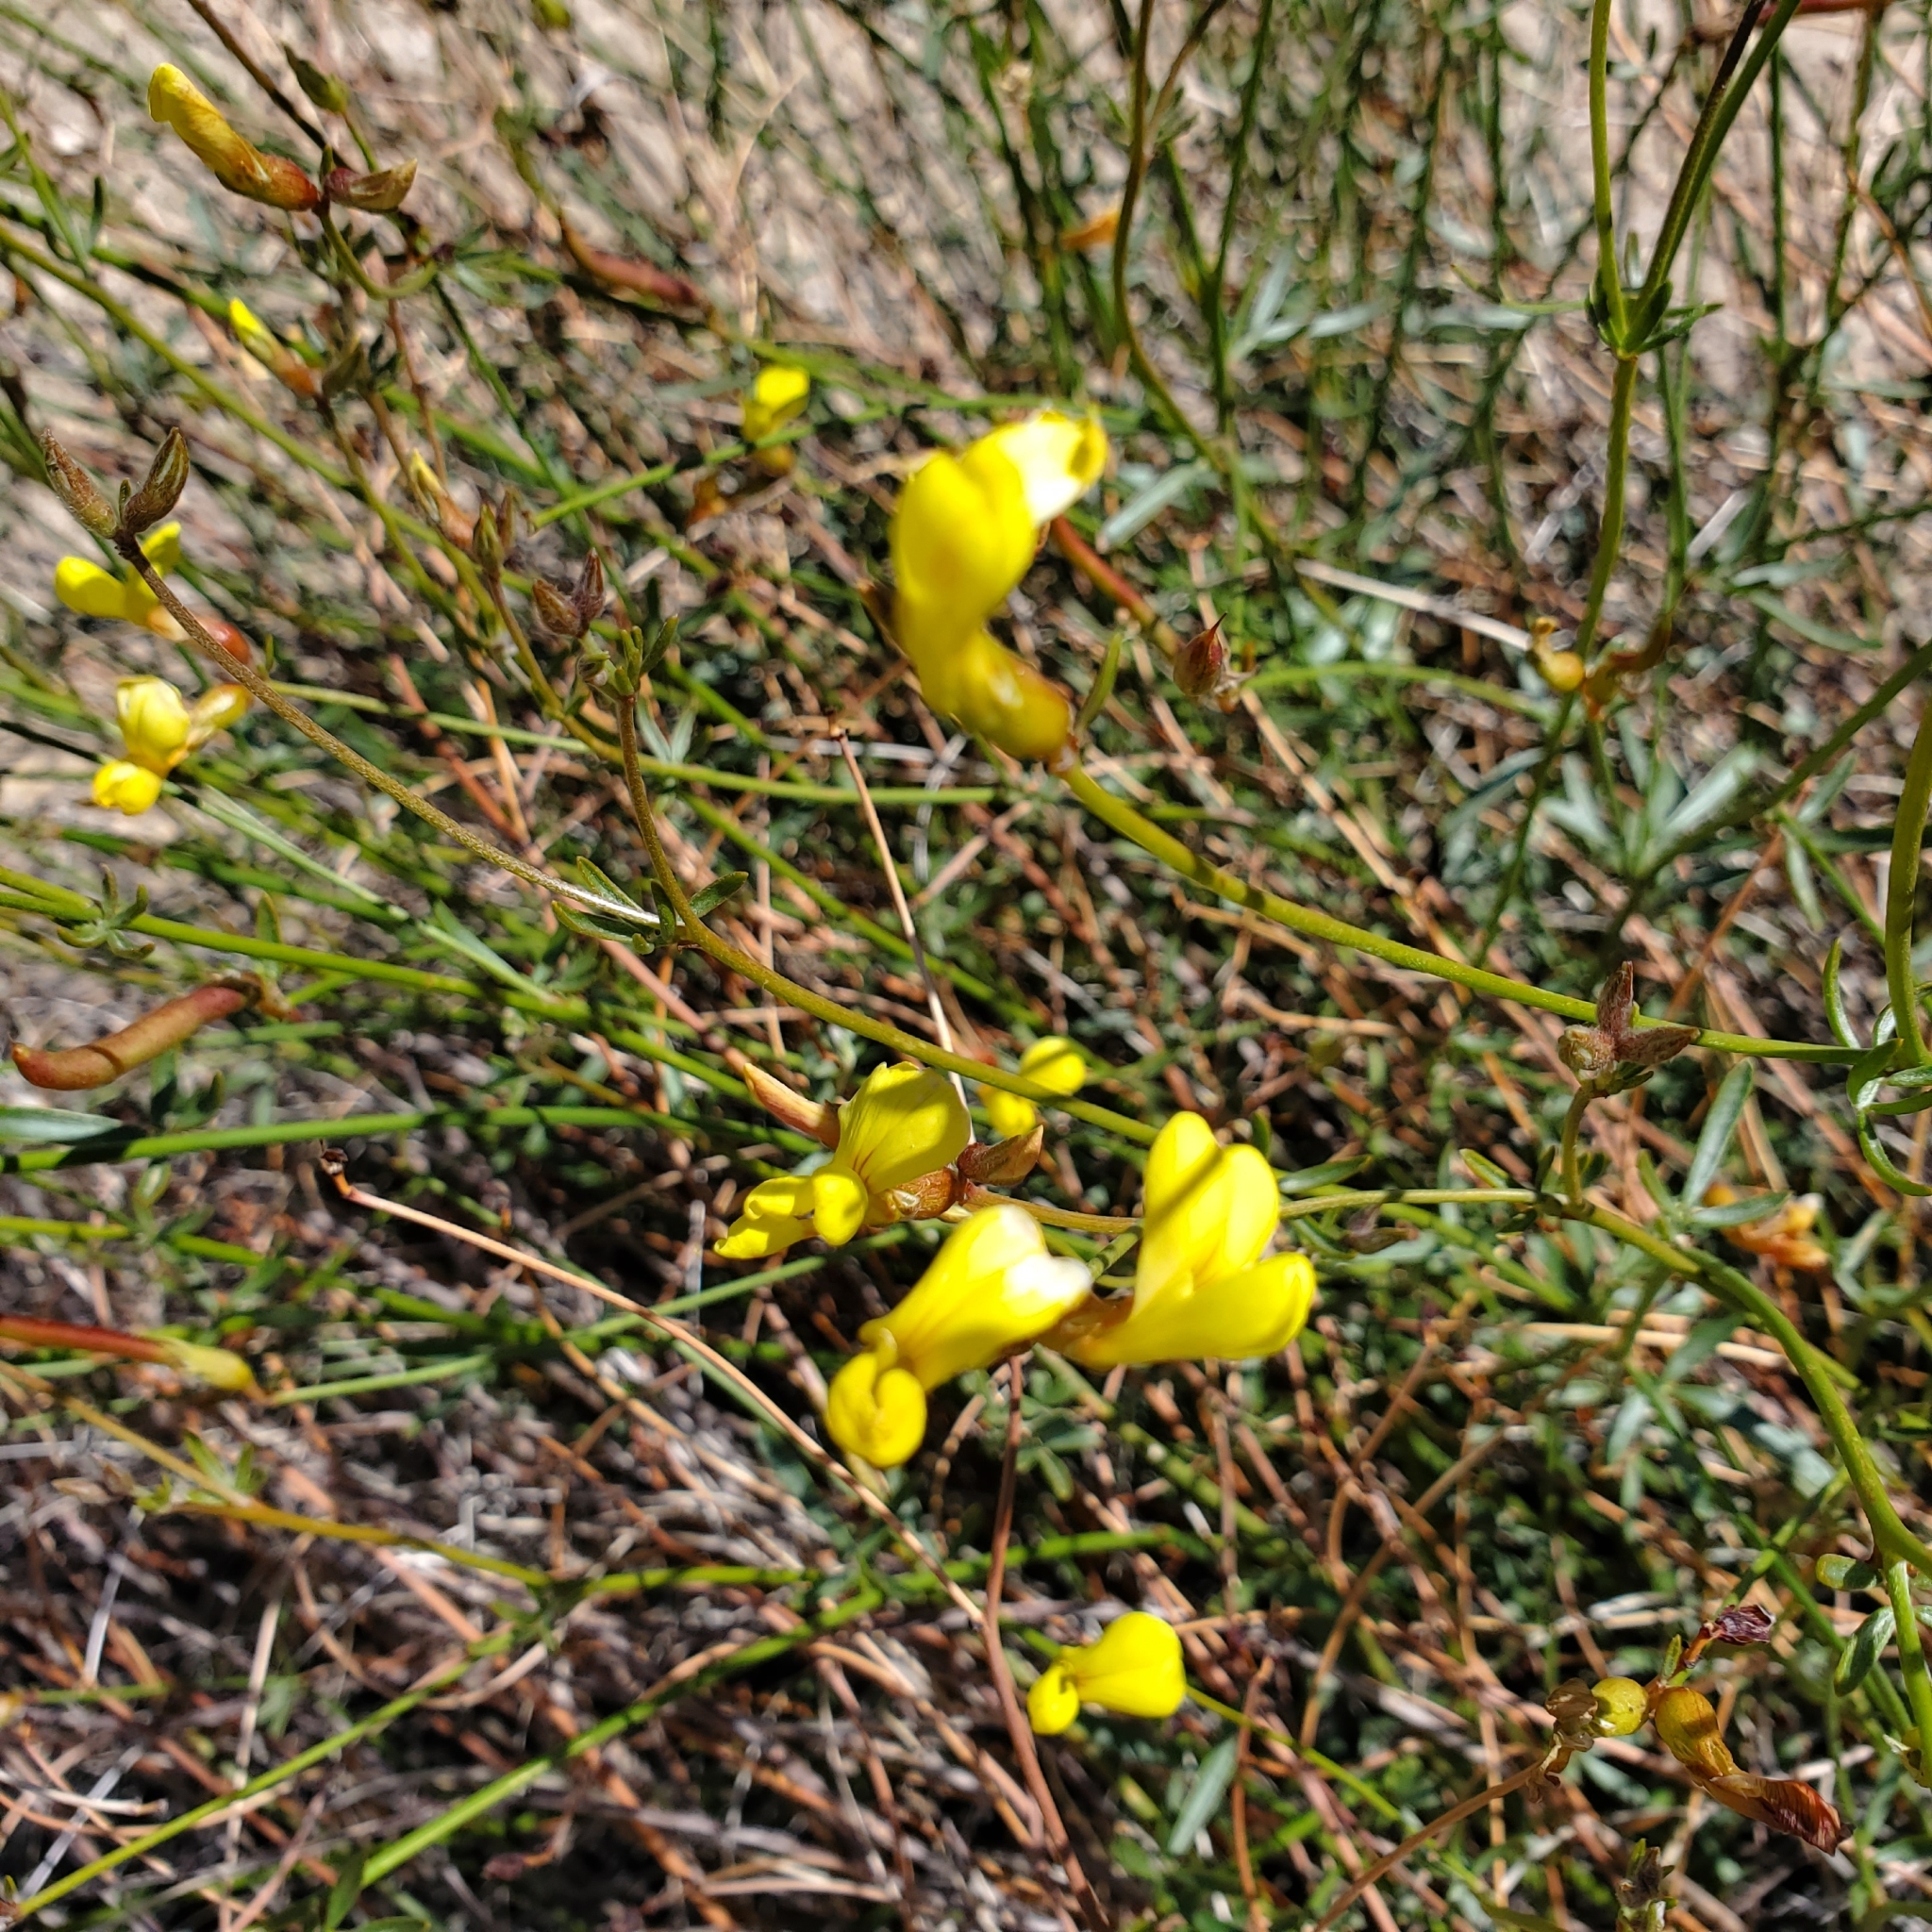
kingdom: Plantae
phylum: Tracheophyta
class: Magnoliopsida
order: Fabales
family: Fabaceae
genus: Acmispon
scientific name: Acmispon rigidus
